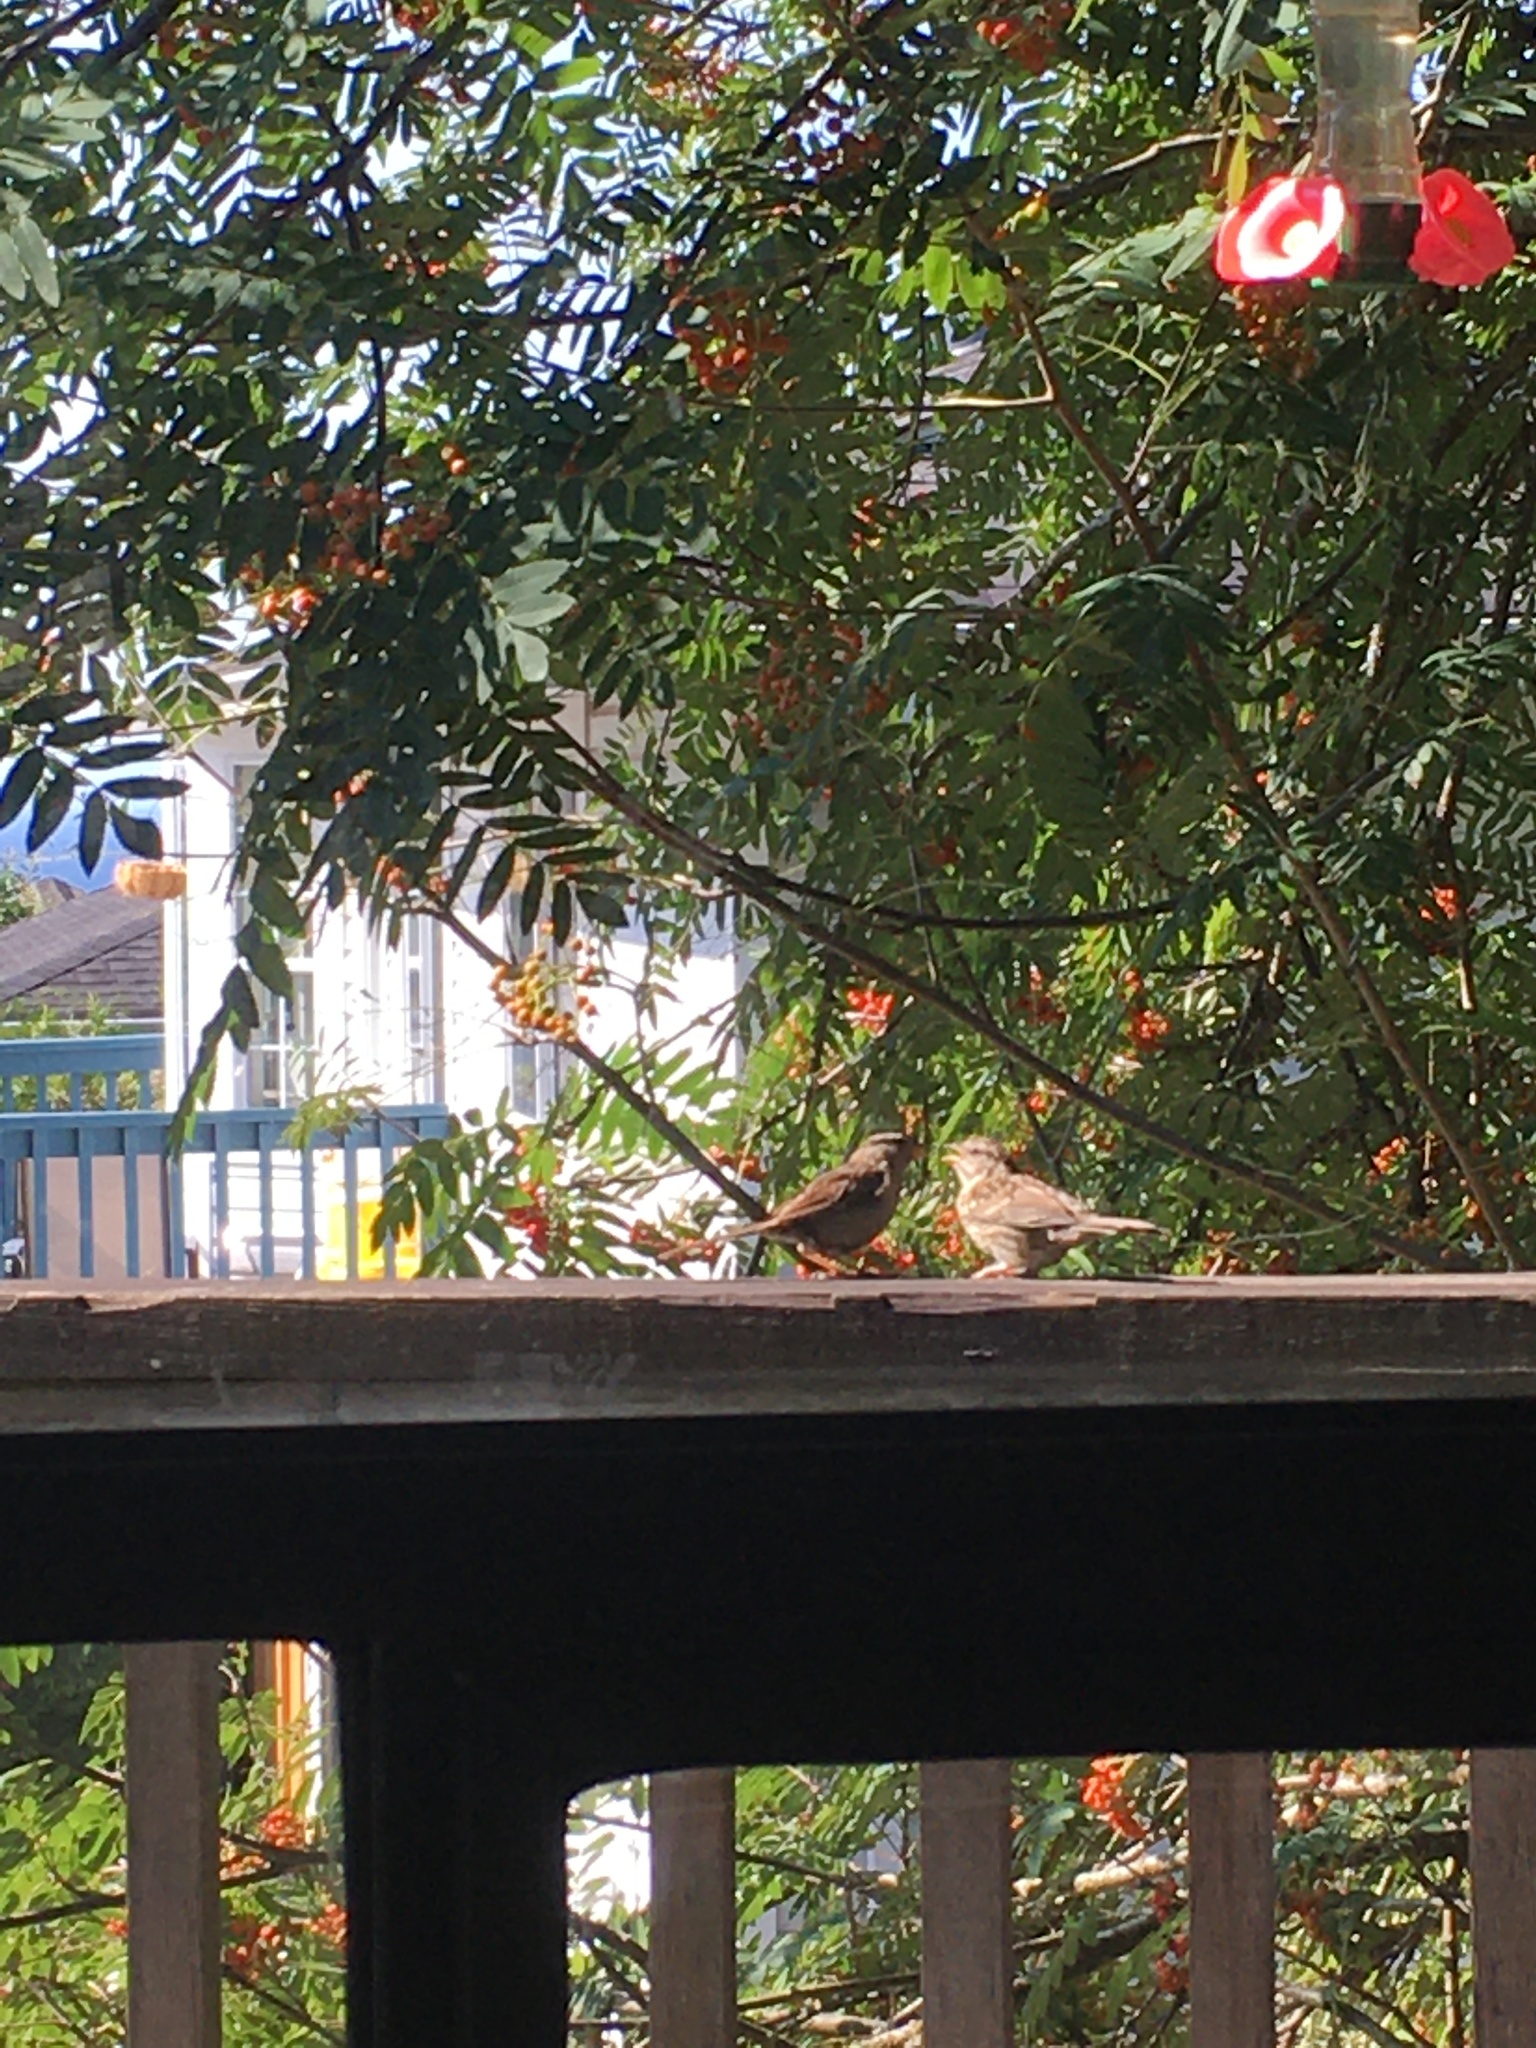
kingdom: Animalia
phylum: Chordata
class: Aves
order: Passeriformes
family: Passerellidae
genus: Zonotrichia
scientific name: Zonotrichia leucophrys
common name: White-crowned sparrow
